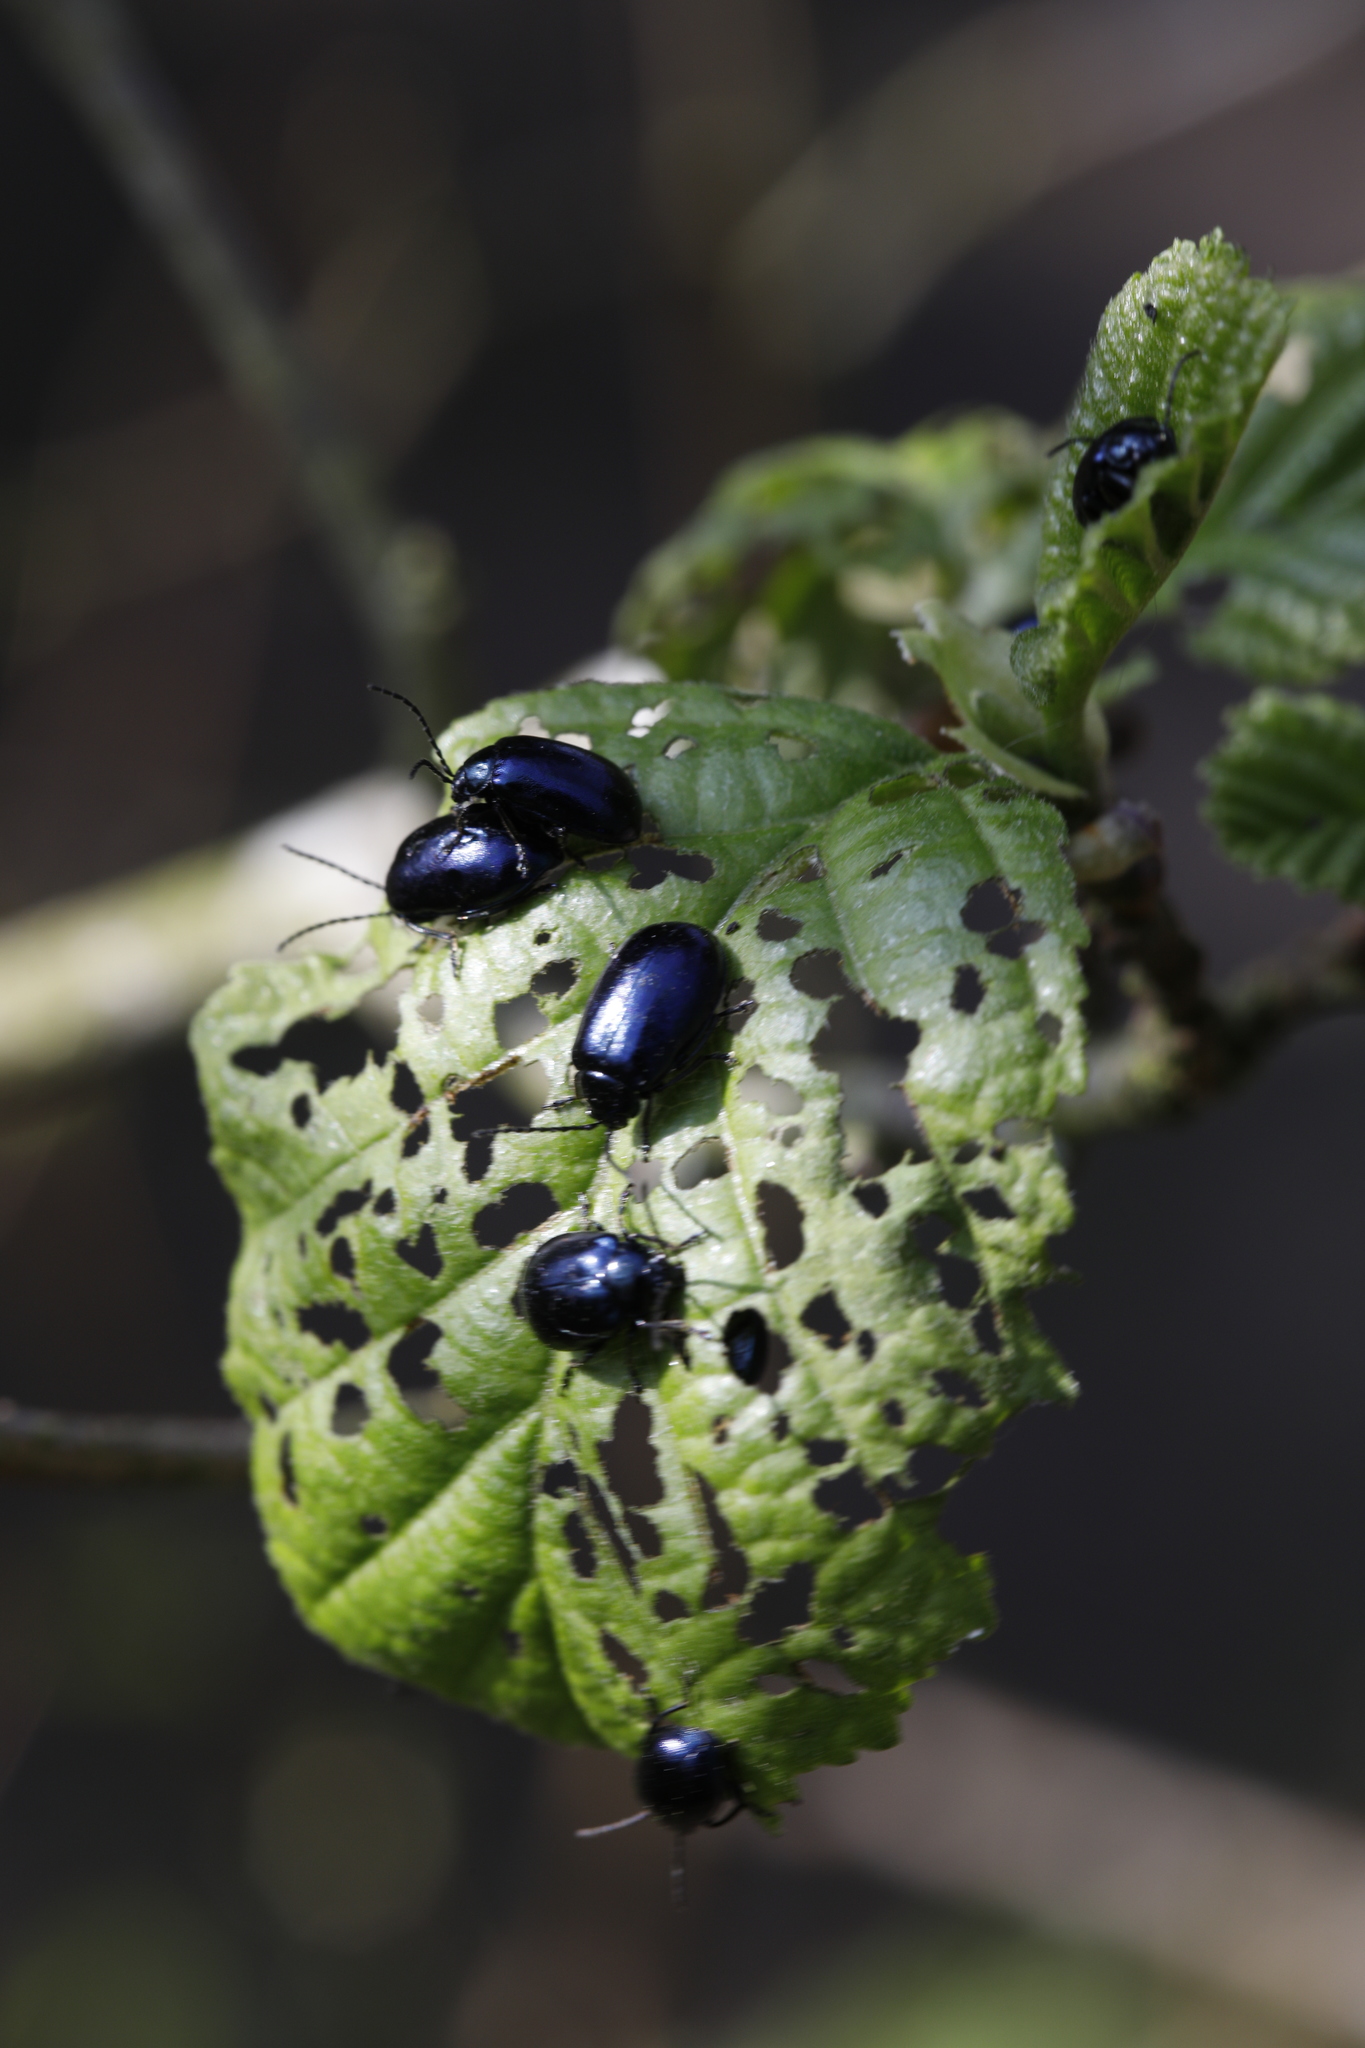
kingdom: Animalia
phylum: Arthropoda
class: Insecta
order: Coleoptera
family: Chrysomelidae
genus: Agelastica
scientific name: Agelastica alni
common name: Alder leaf beetle
